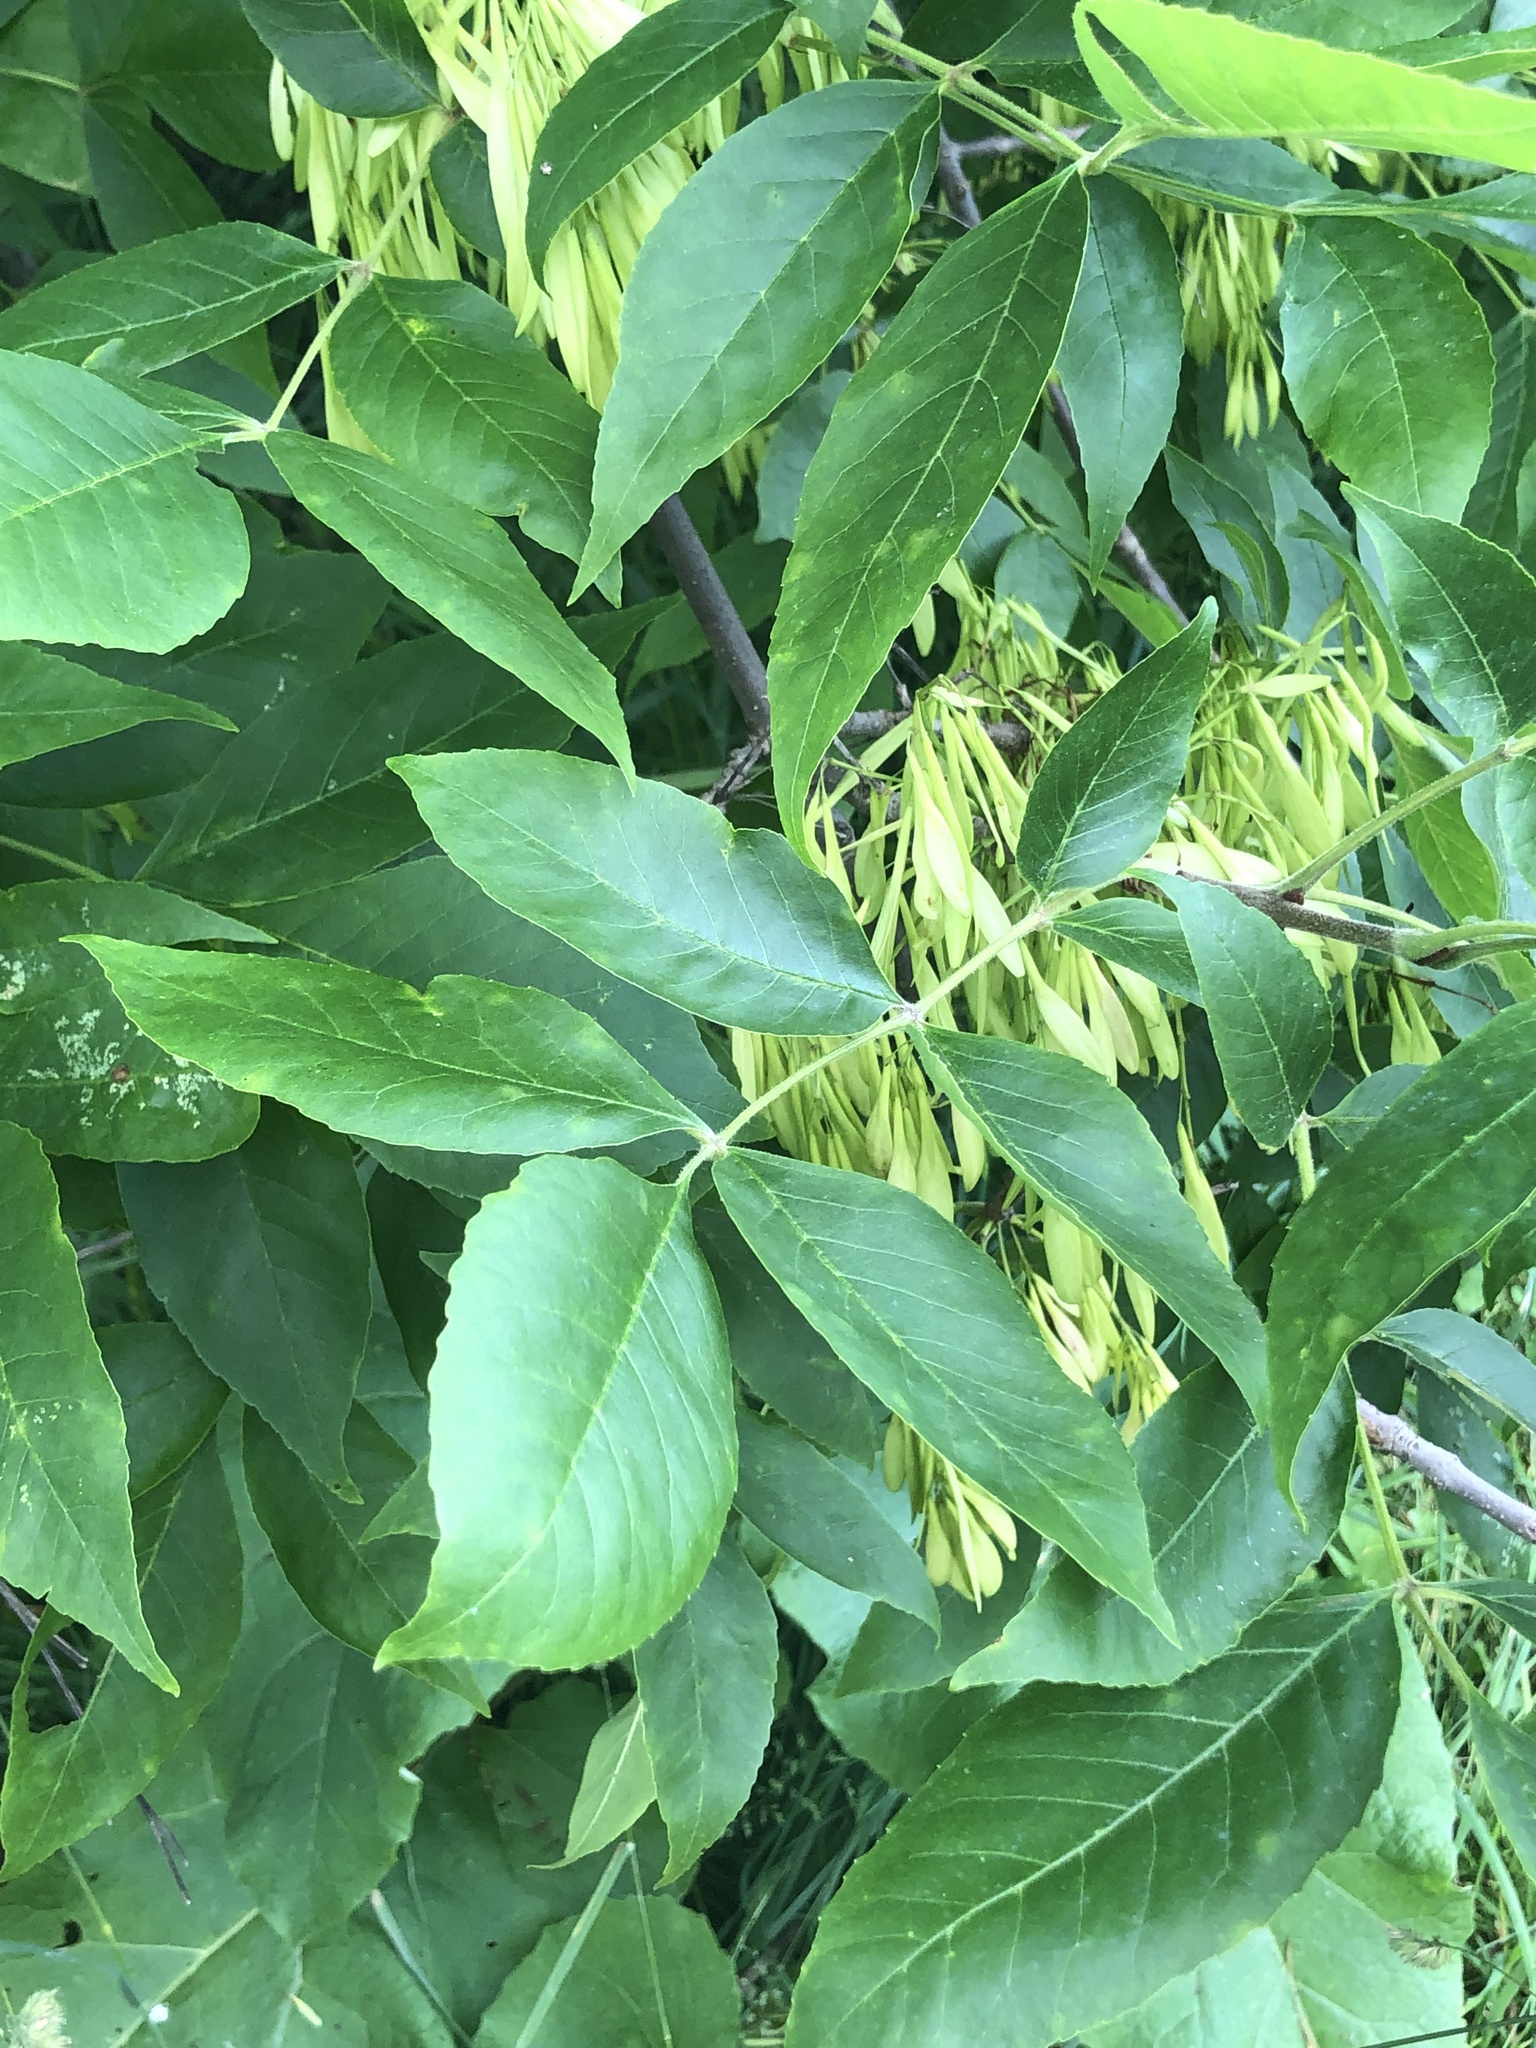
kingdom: Plantae
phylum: Tracheophyta
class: Magnoliopsida
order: Lamiales
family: Oleaceae
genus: Fraxinus
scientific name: Fraxinus pennsylvanica
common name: Green ash
